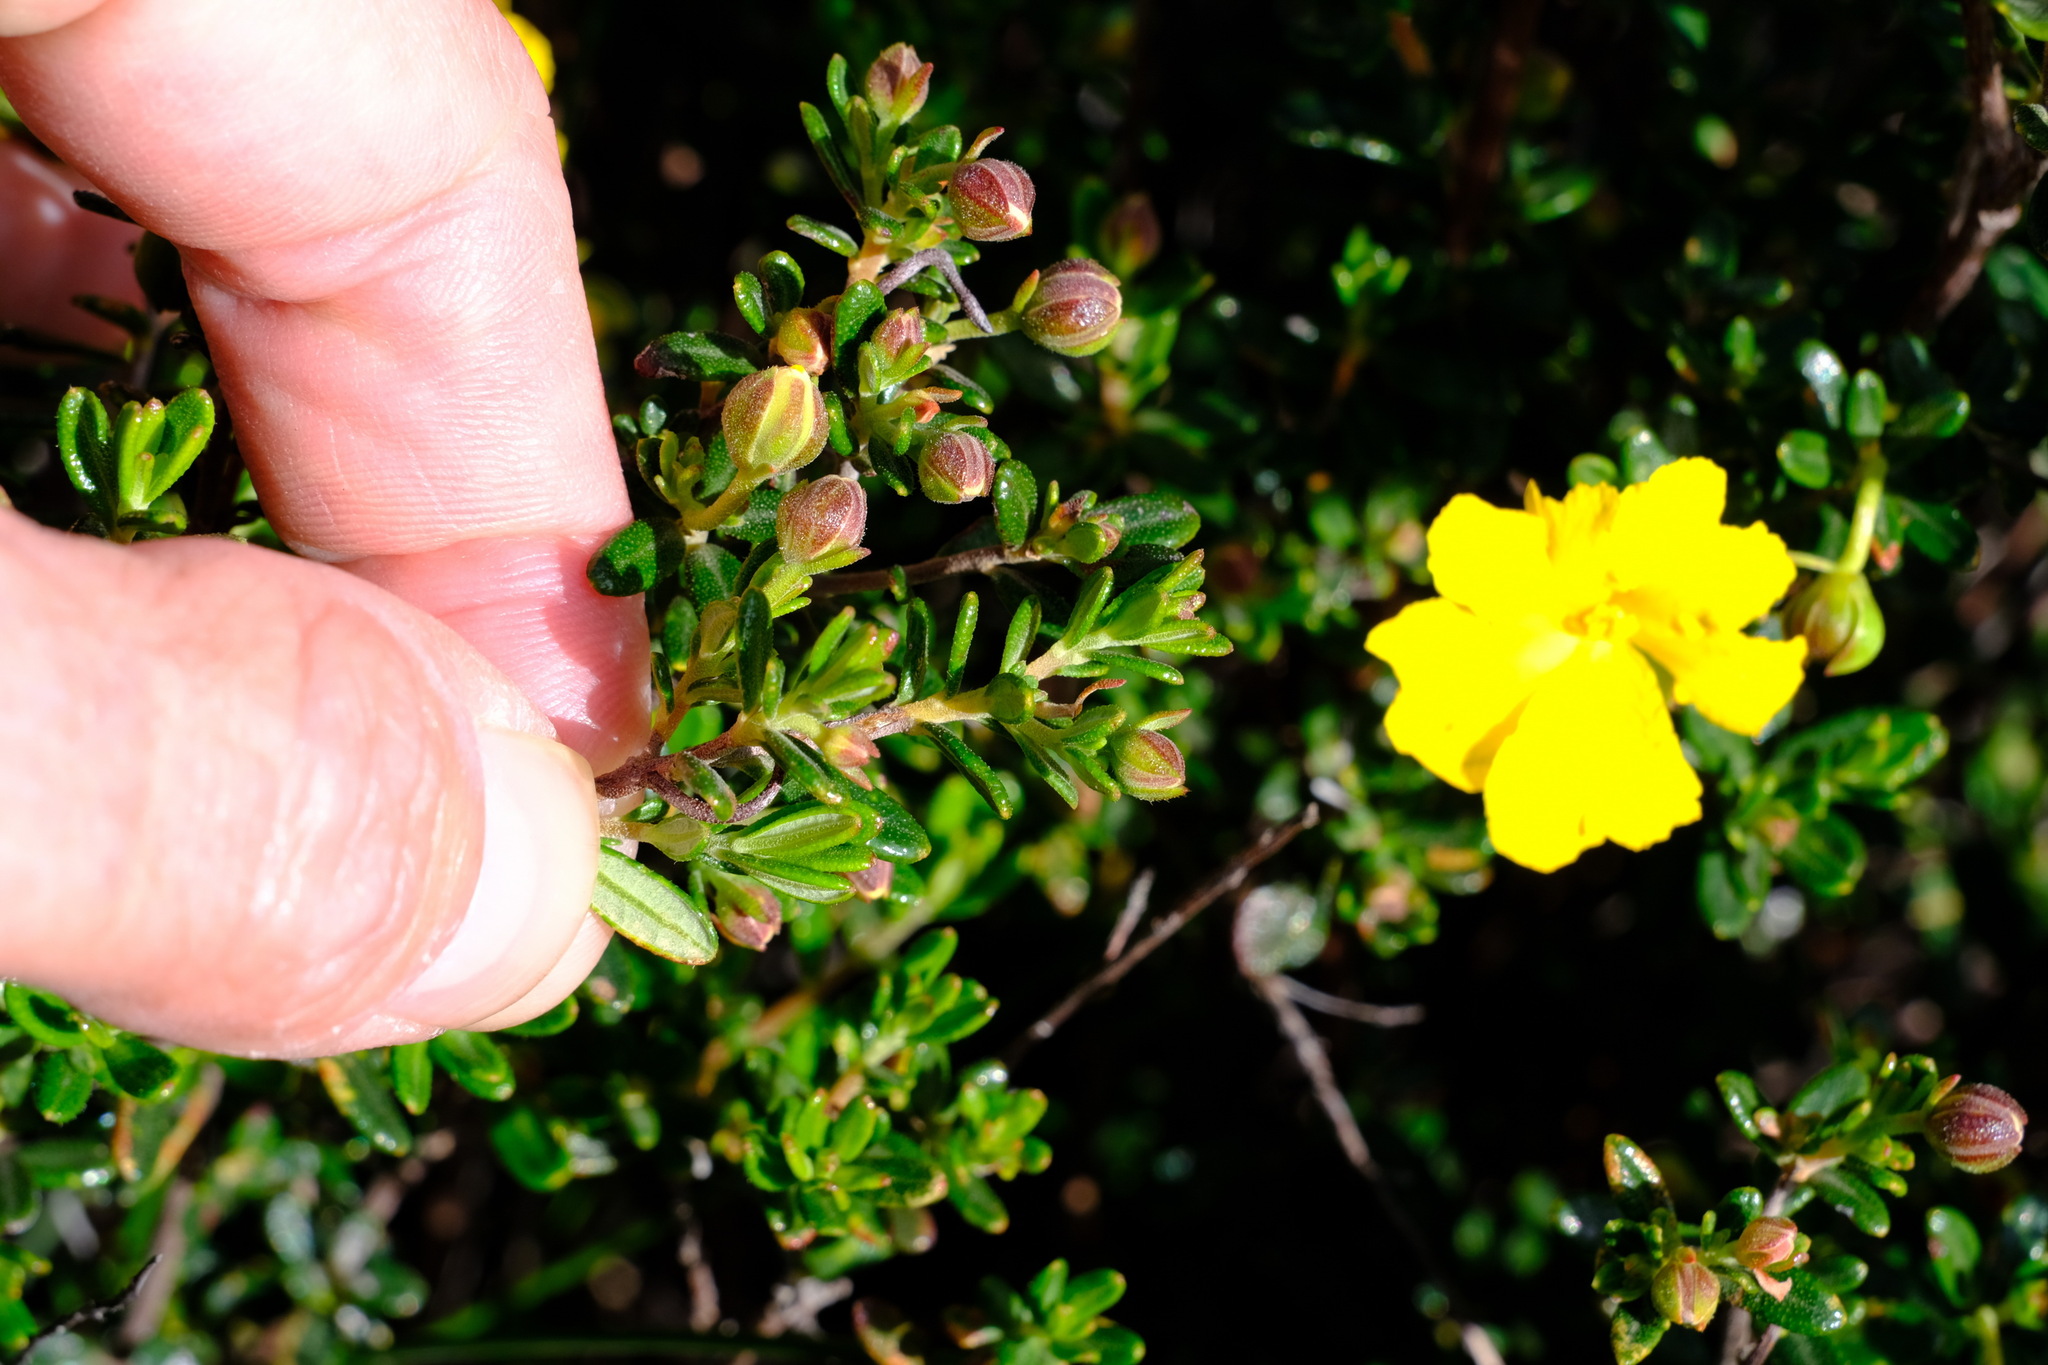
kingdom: Plantae
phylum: Tracheophyta
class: Magnoliopsida
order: Dilleniales
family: Dilleniaceae
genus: Hibbertia
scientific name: Hibbertia hypericoides
